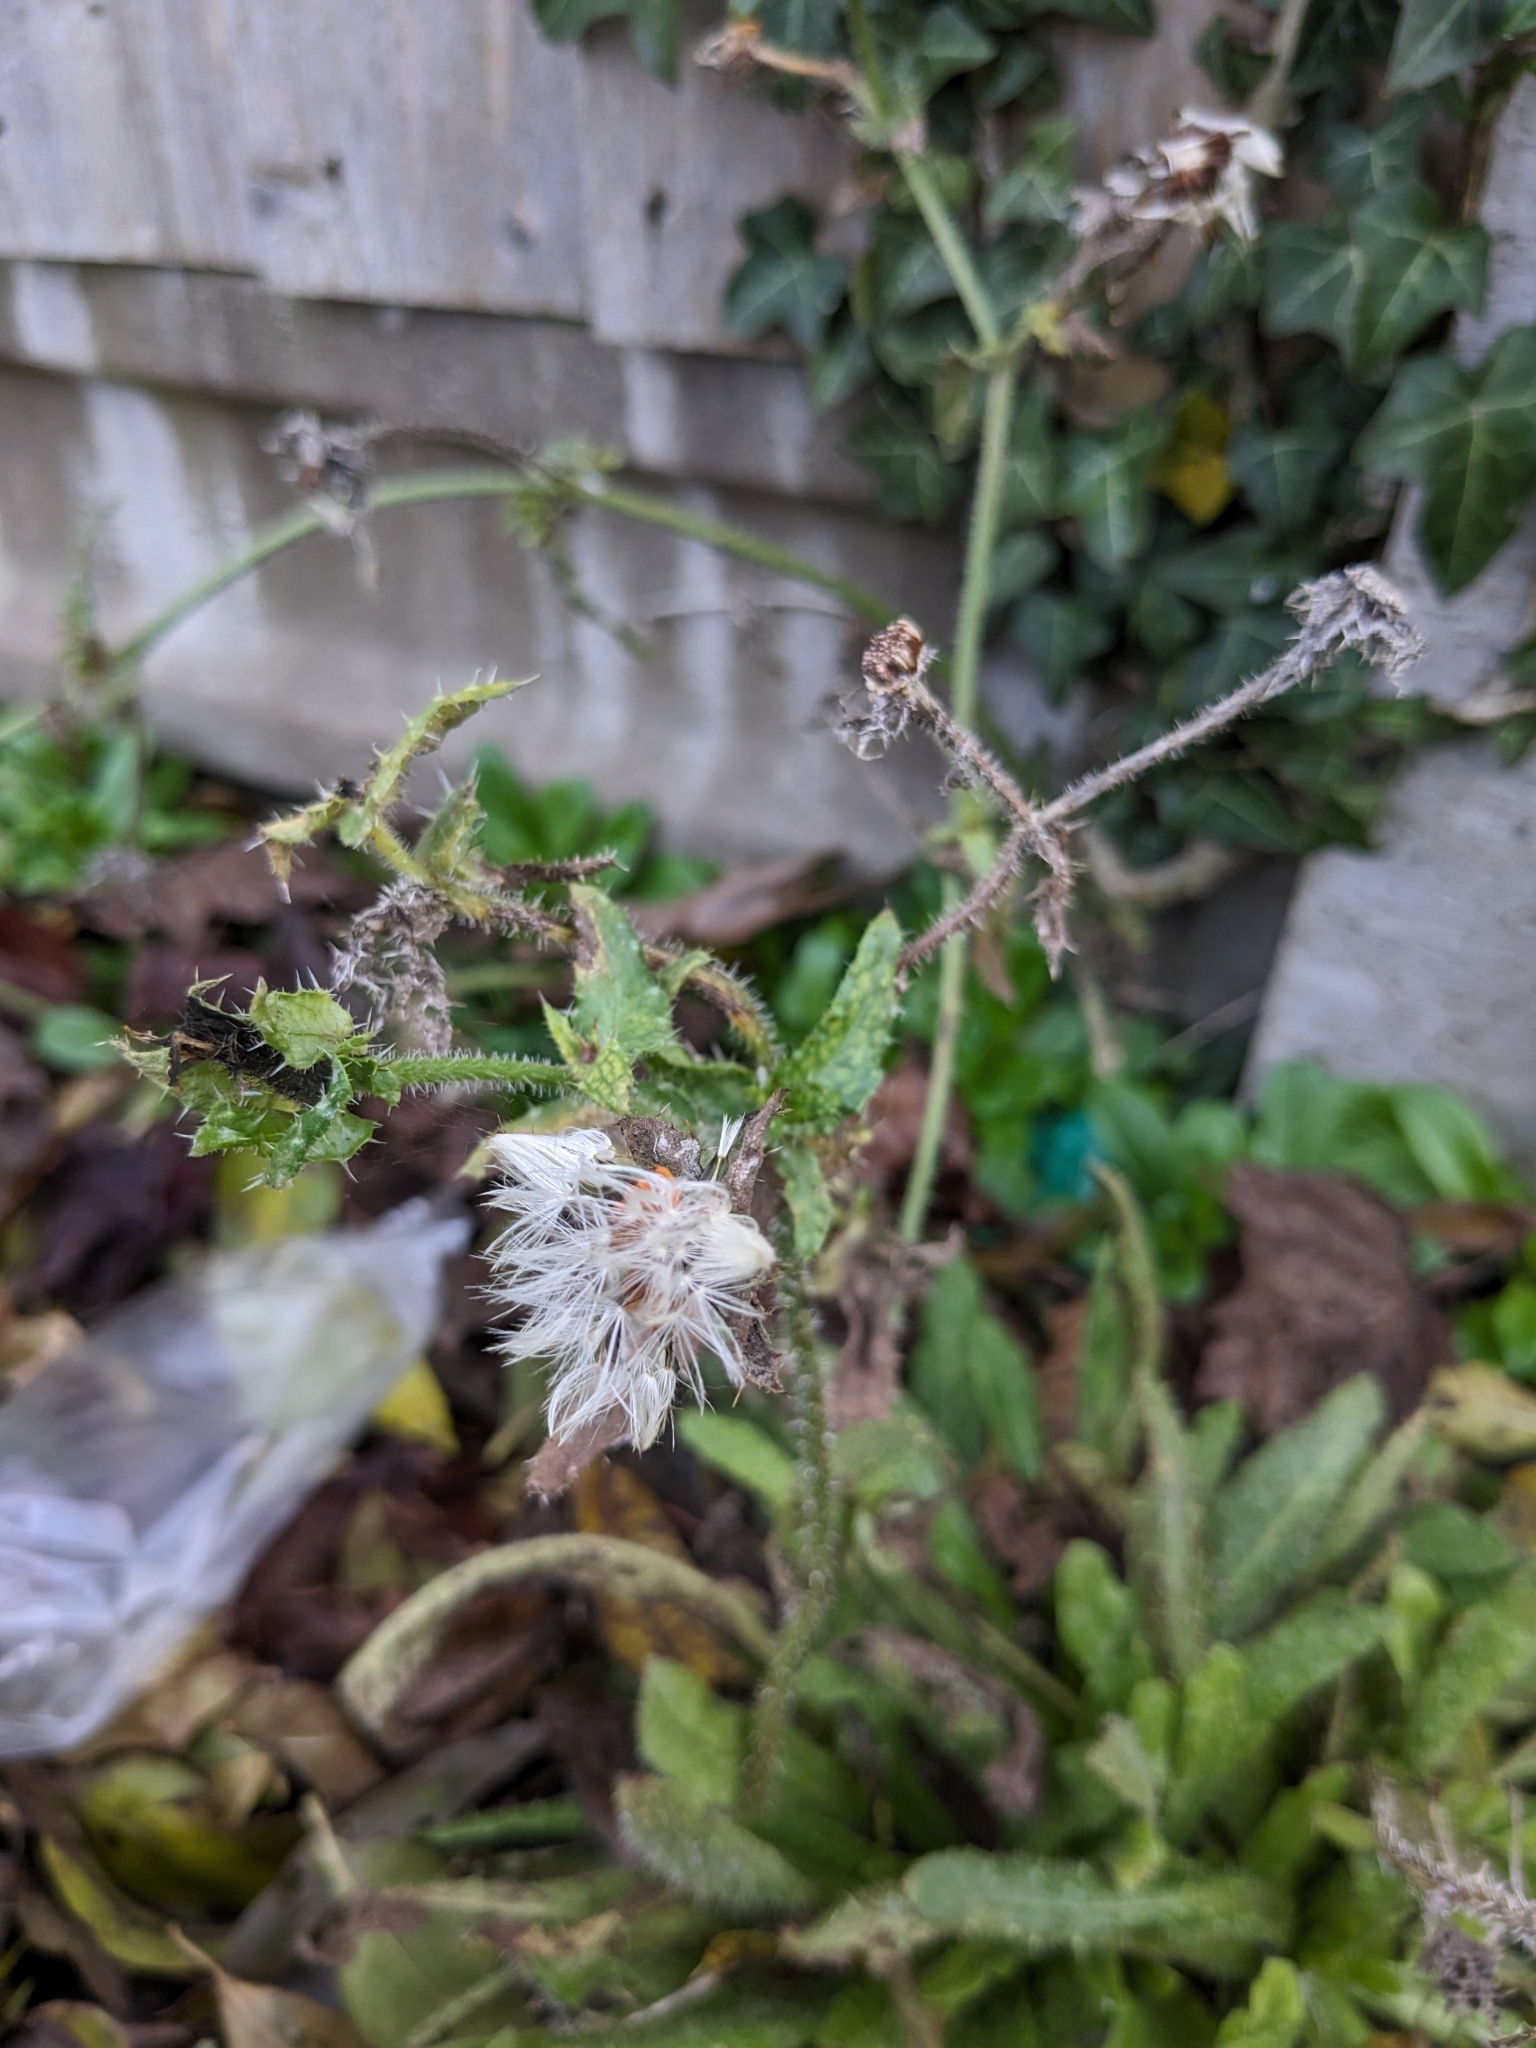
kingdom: Plantae
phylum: Tracheophyta
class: Magnoliopsida
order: Asterales
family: Asteraceae
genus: Helminthotheca
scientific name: Helminthotheca echioides
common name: Ox-tongue
